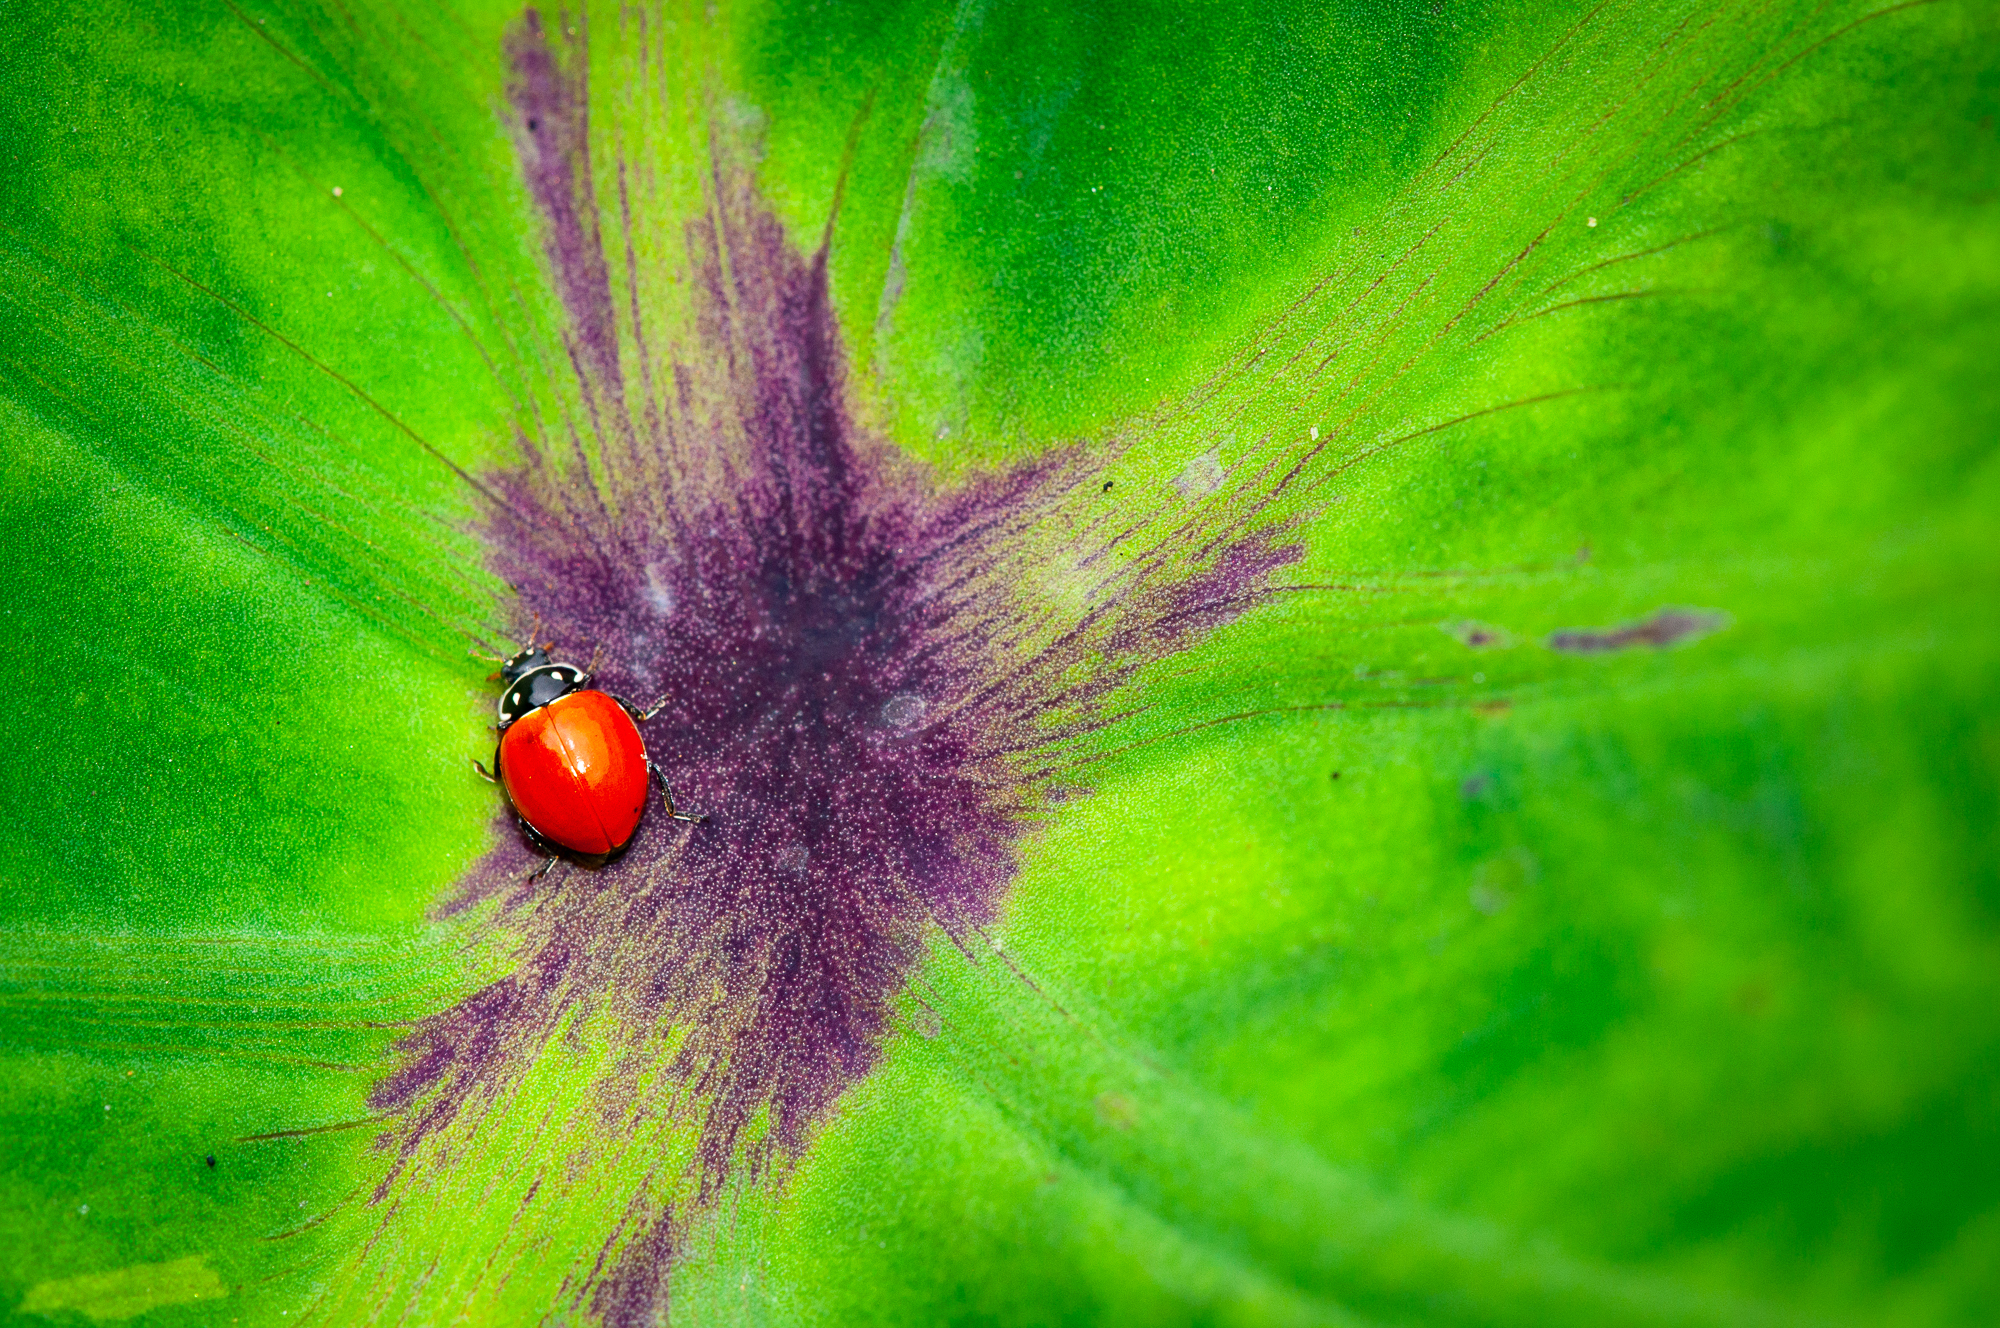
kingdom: Animalia
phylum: Arthropoda
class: Insecta
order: Coleoptera
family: Coccinellidae
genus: Cycloneda
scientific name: Cycloneda emarginata
